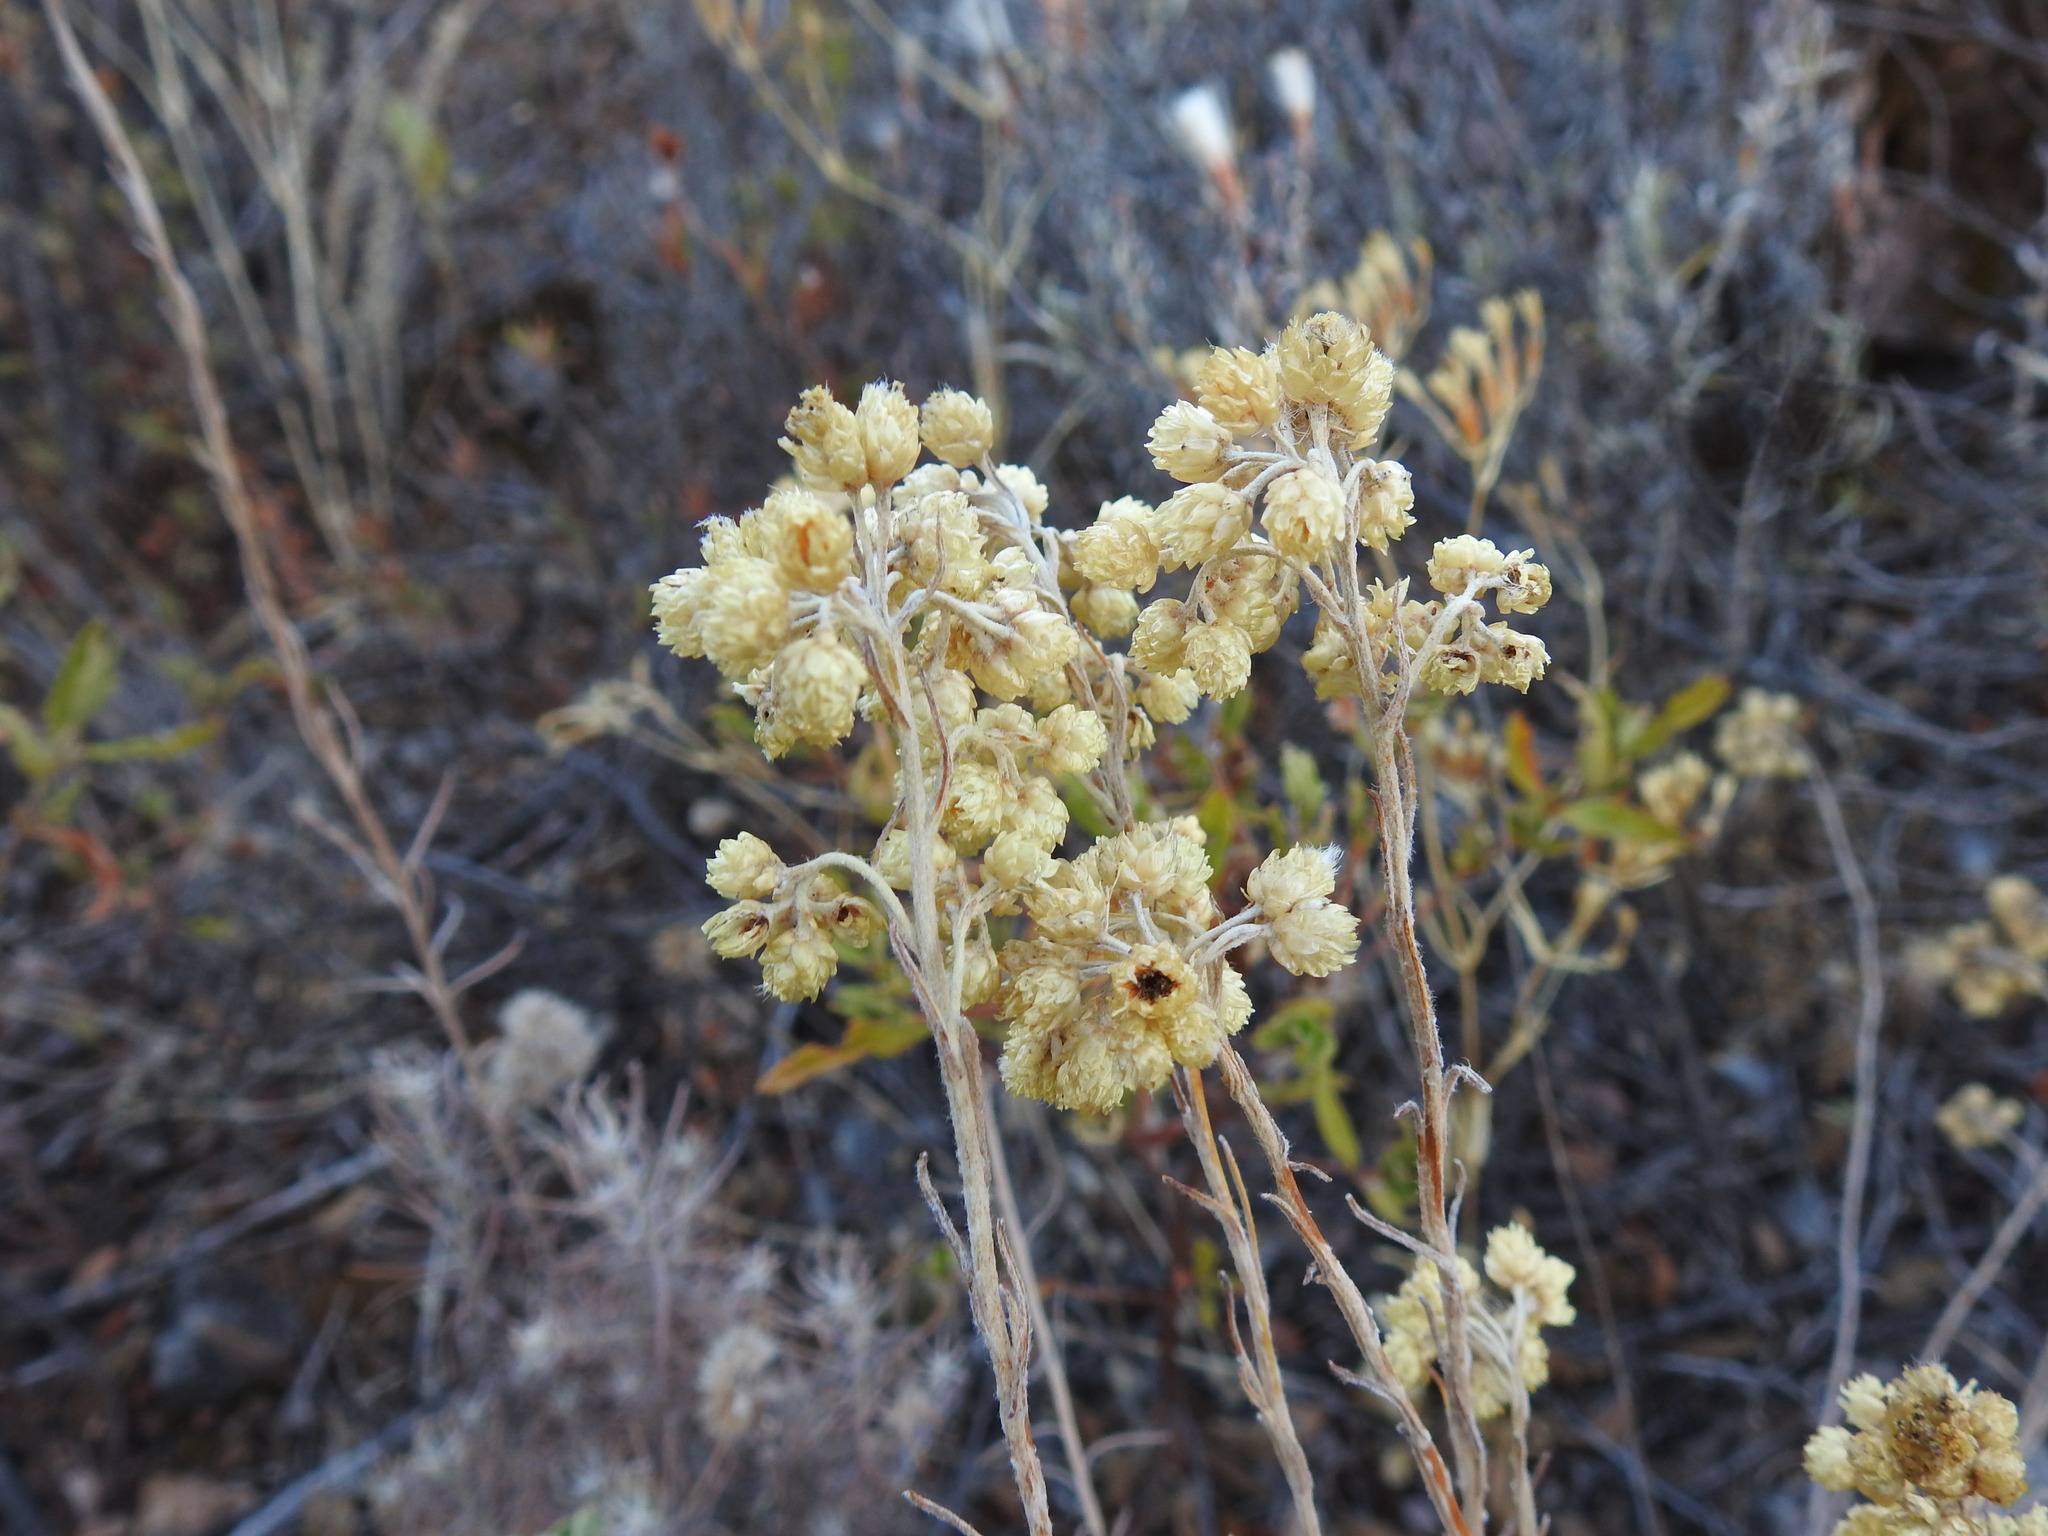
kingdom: Plantae
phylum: Tracheophyta
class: Magnoliopsida
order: Asterales
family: Asteraceae
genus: Helichrysum
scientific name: Helichrysum stoechas
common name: Goldilocks
